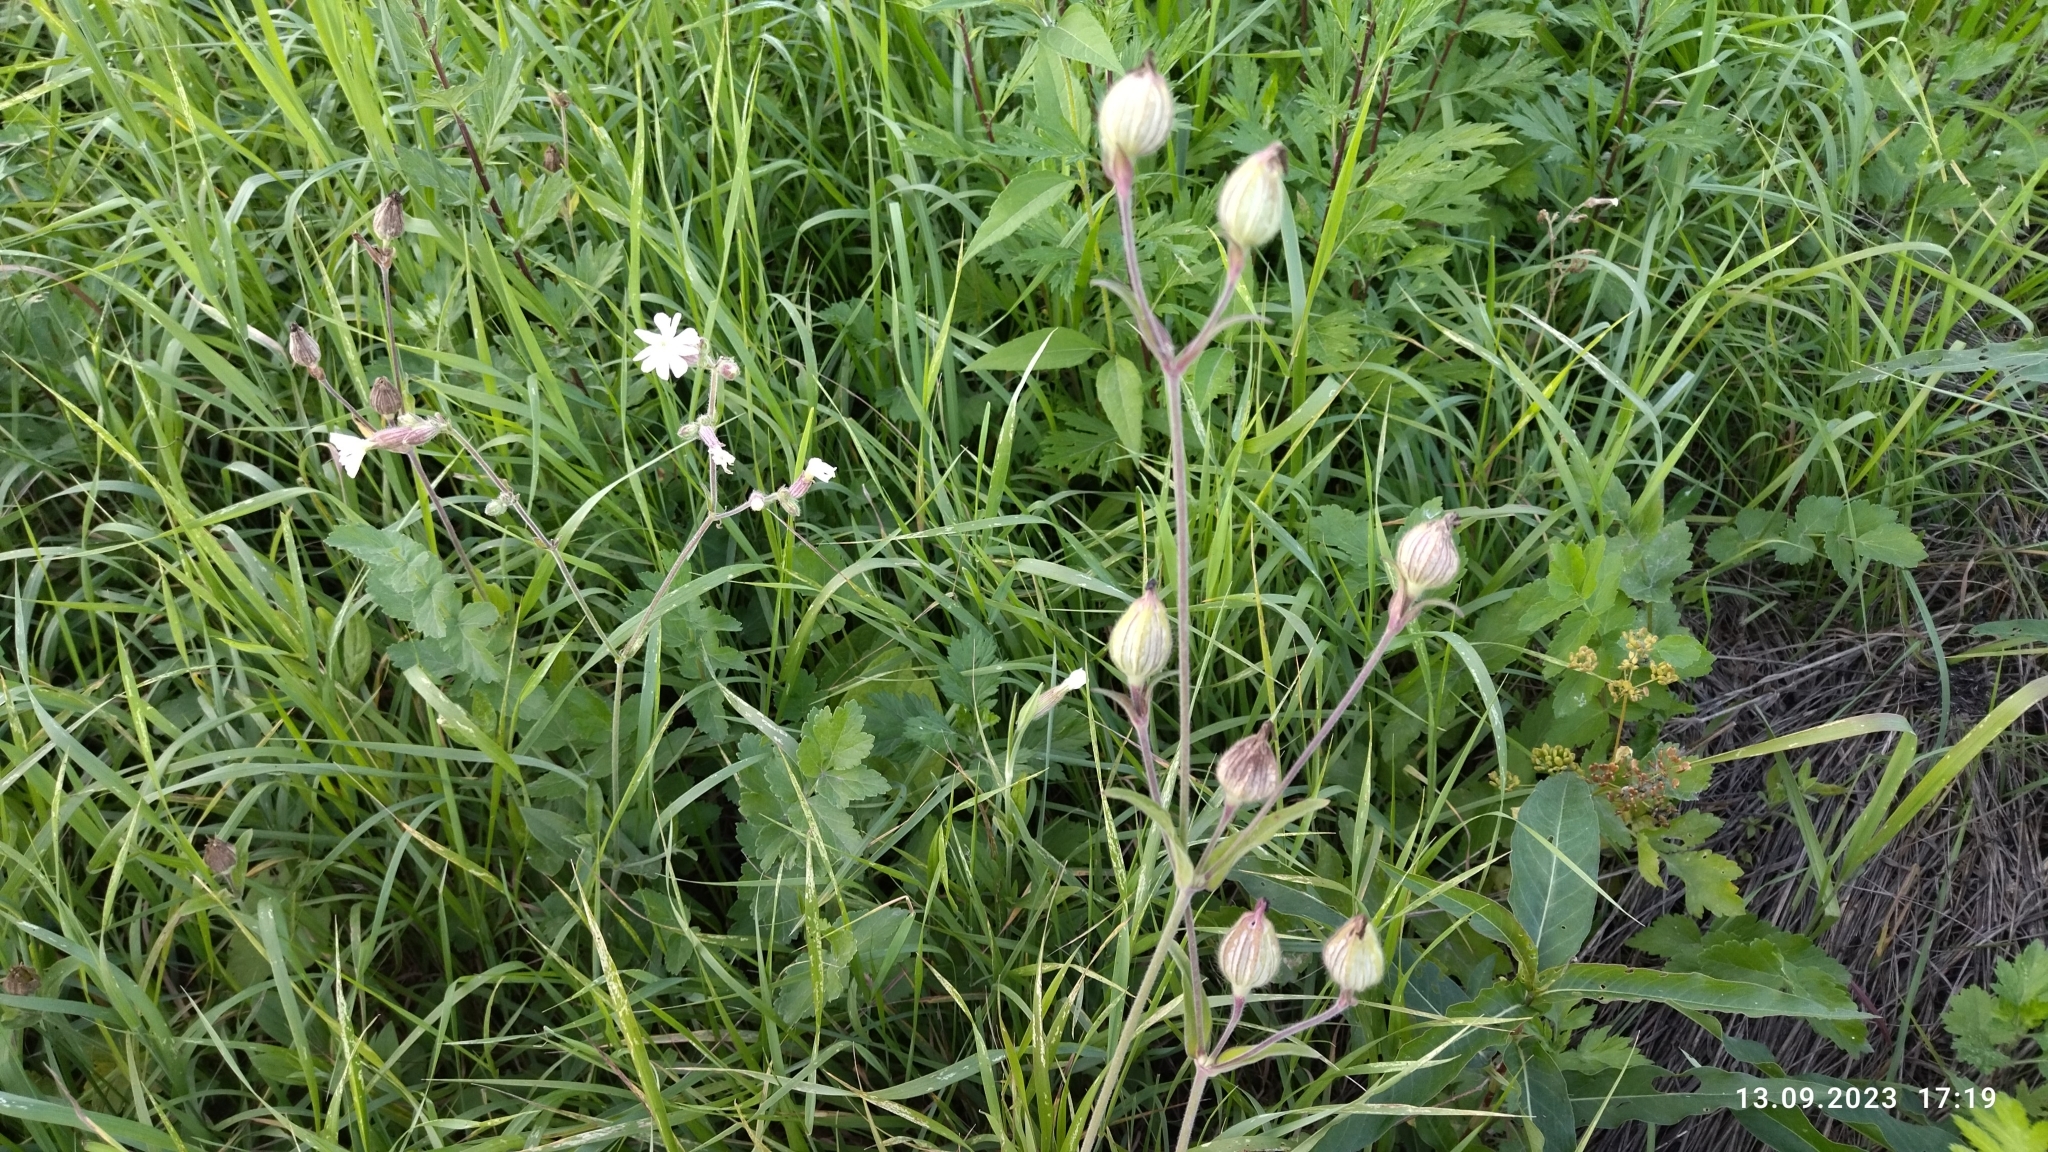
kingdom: Plantae
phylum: Tracheophyta
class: Magnoliopsida
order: Caryophyllales
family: Caryophyllaceae
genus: Silene
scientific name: Silene latifolia
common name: White campion
